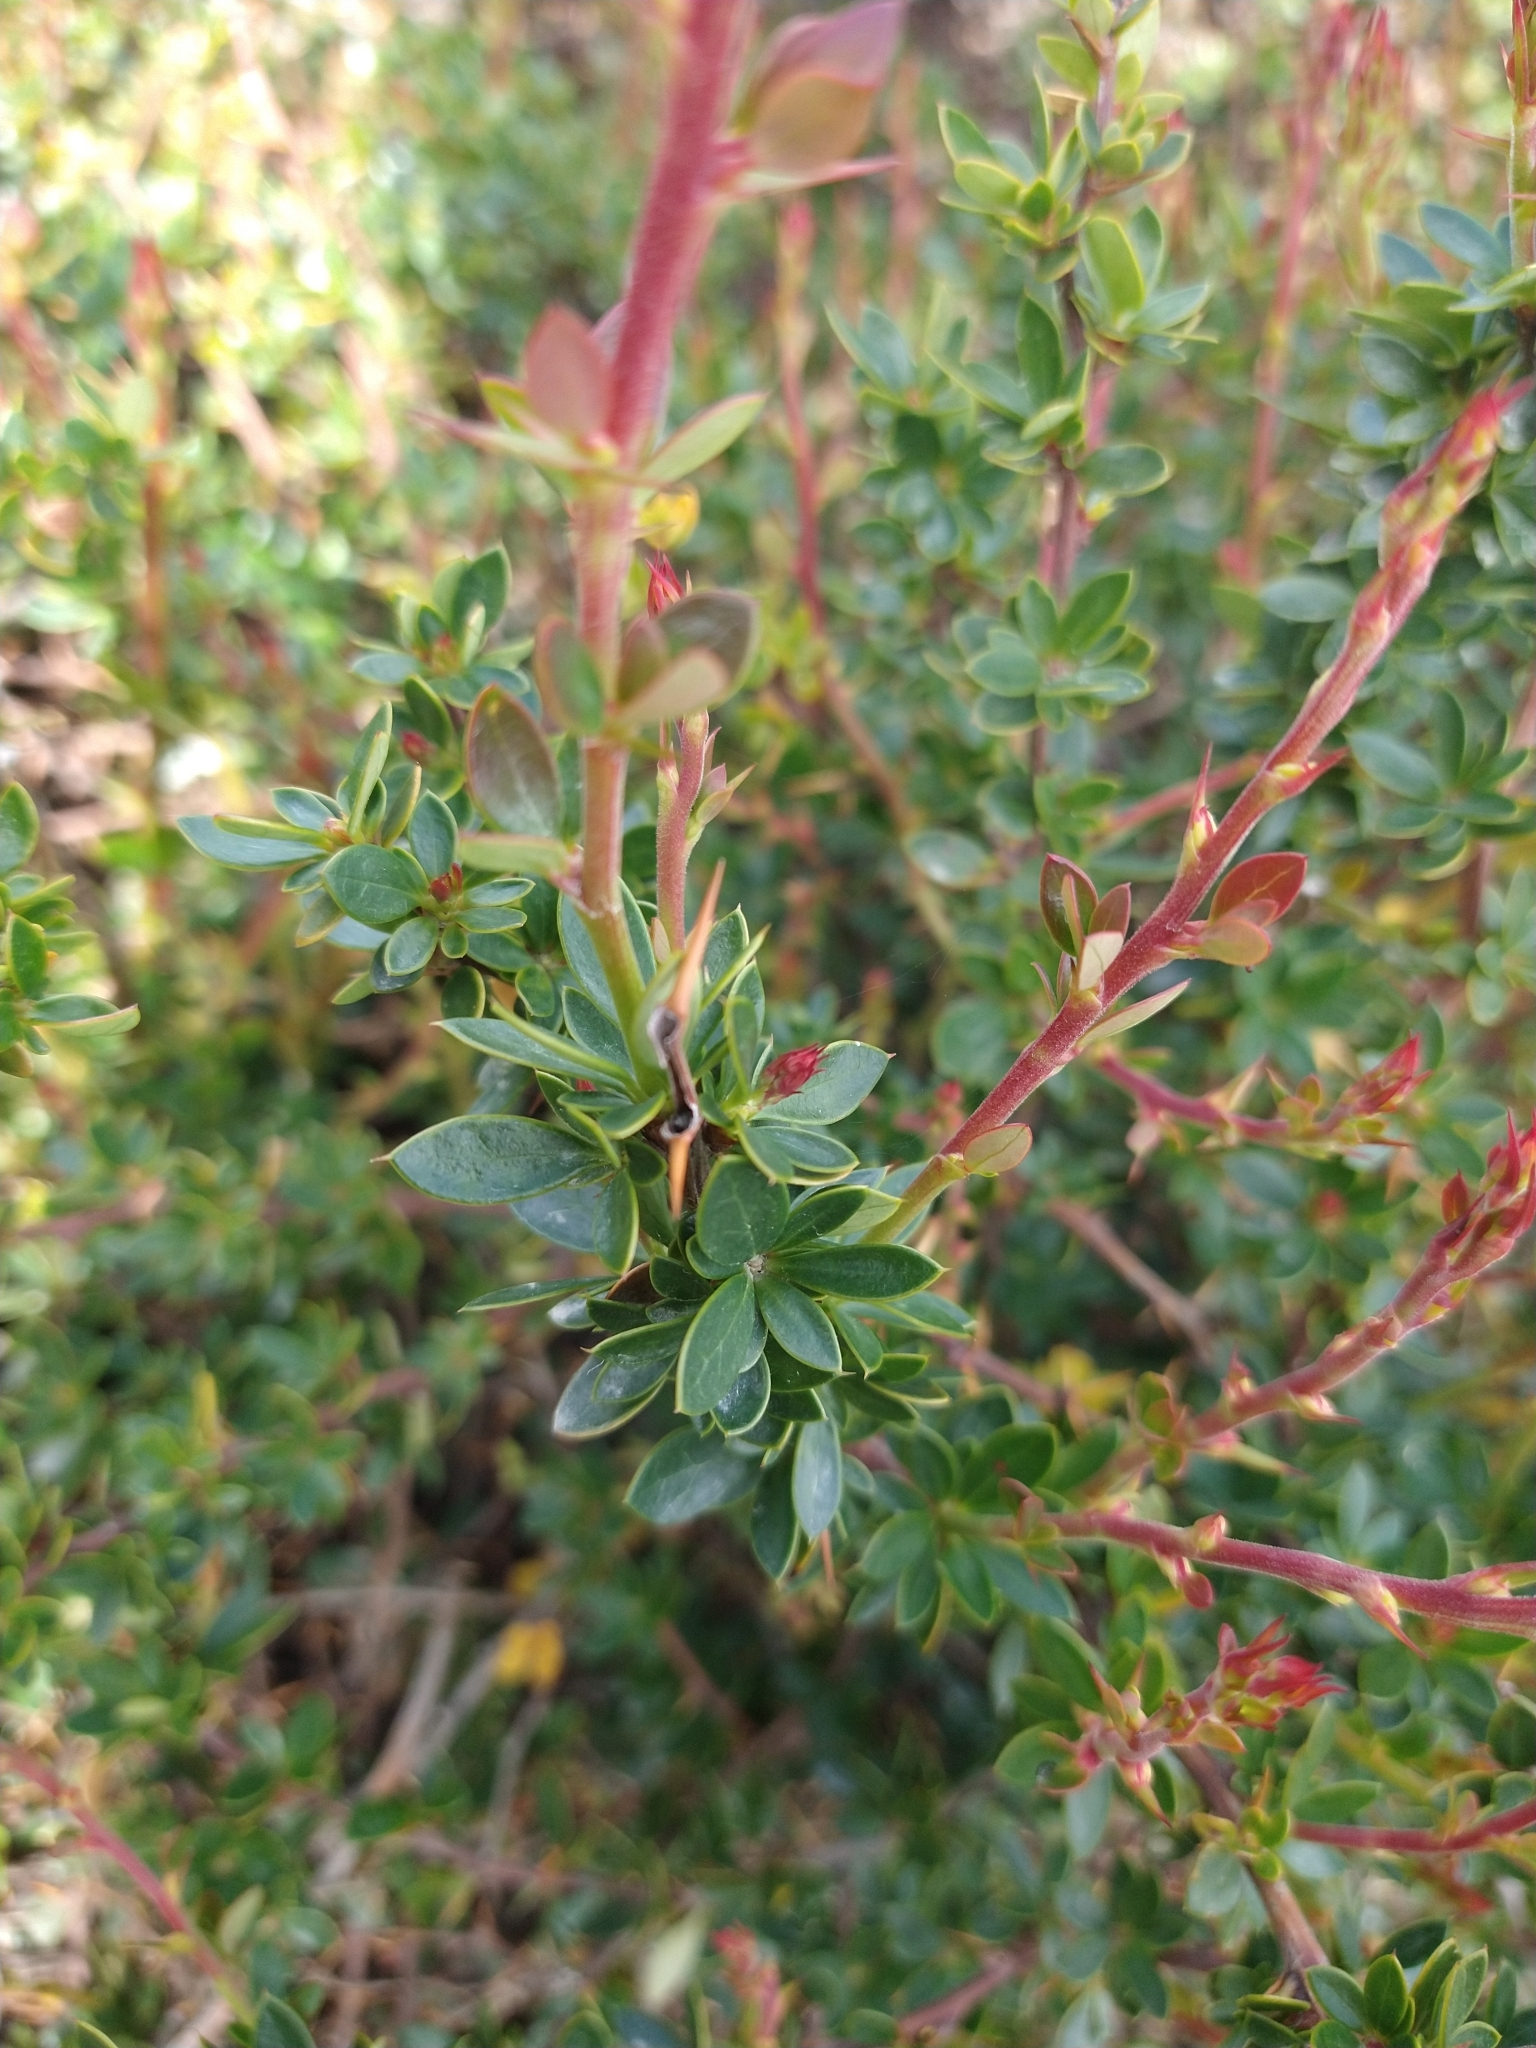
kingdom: Plantae
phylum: Tracheophyta
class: Magnoliopsida
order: Ranunculales
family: Berberidaceae
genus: Berberis
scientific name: Berberis microphylla
